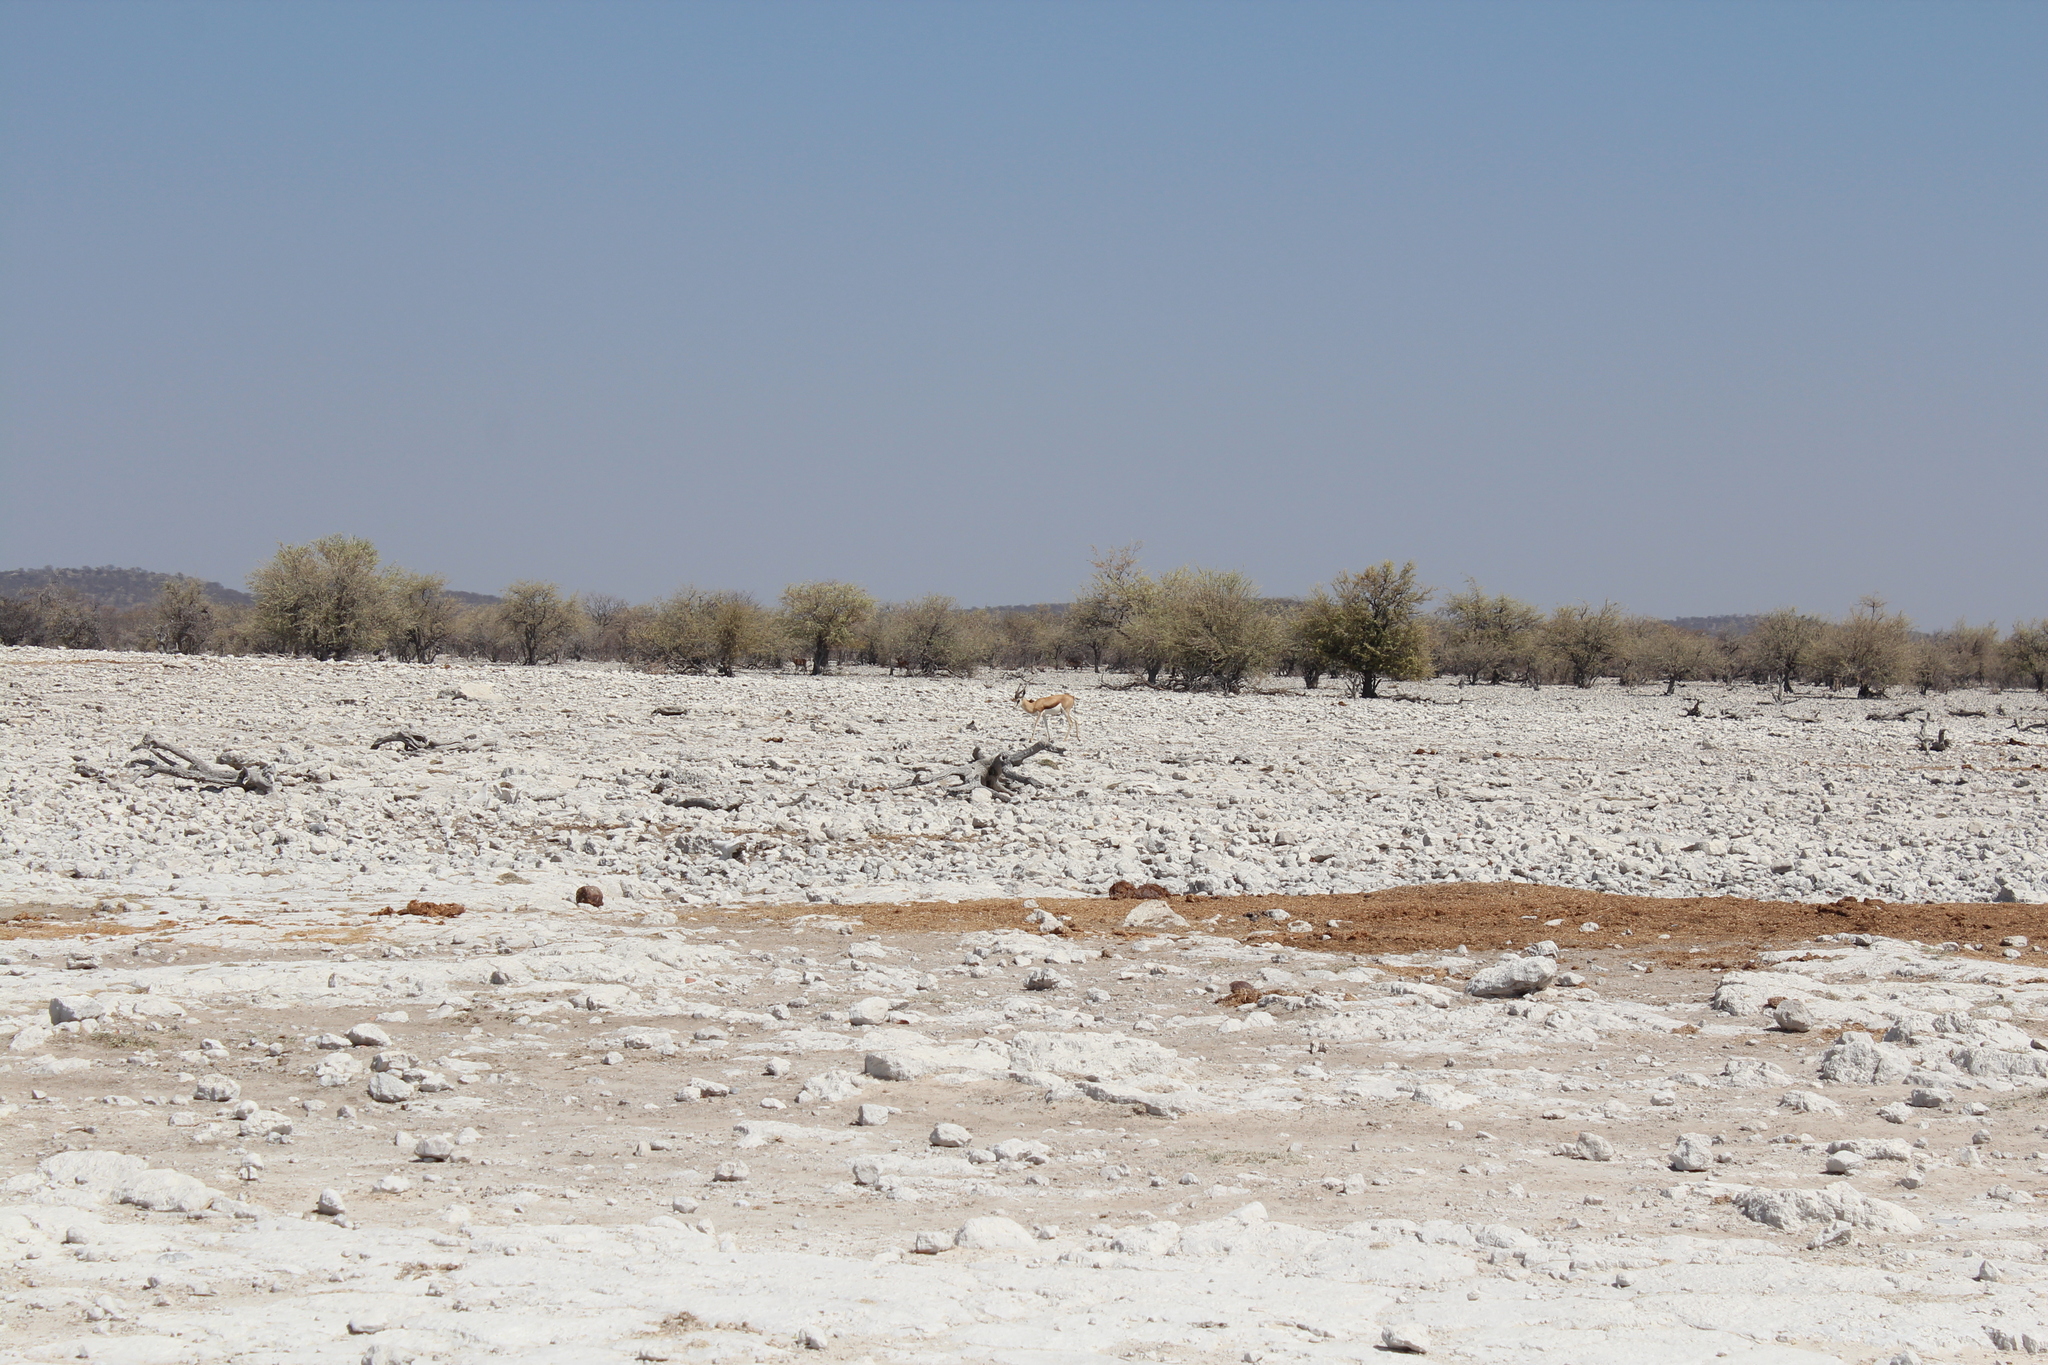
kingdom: Animalia
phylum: Chordata
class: Mammalia
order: Artiodactyla
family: Bovidae
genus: Antidorcas
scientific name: Antidorcas marsupialis
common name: Springbok
